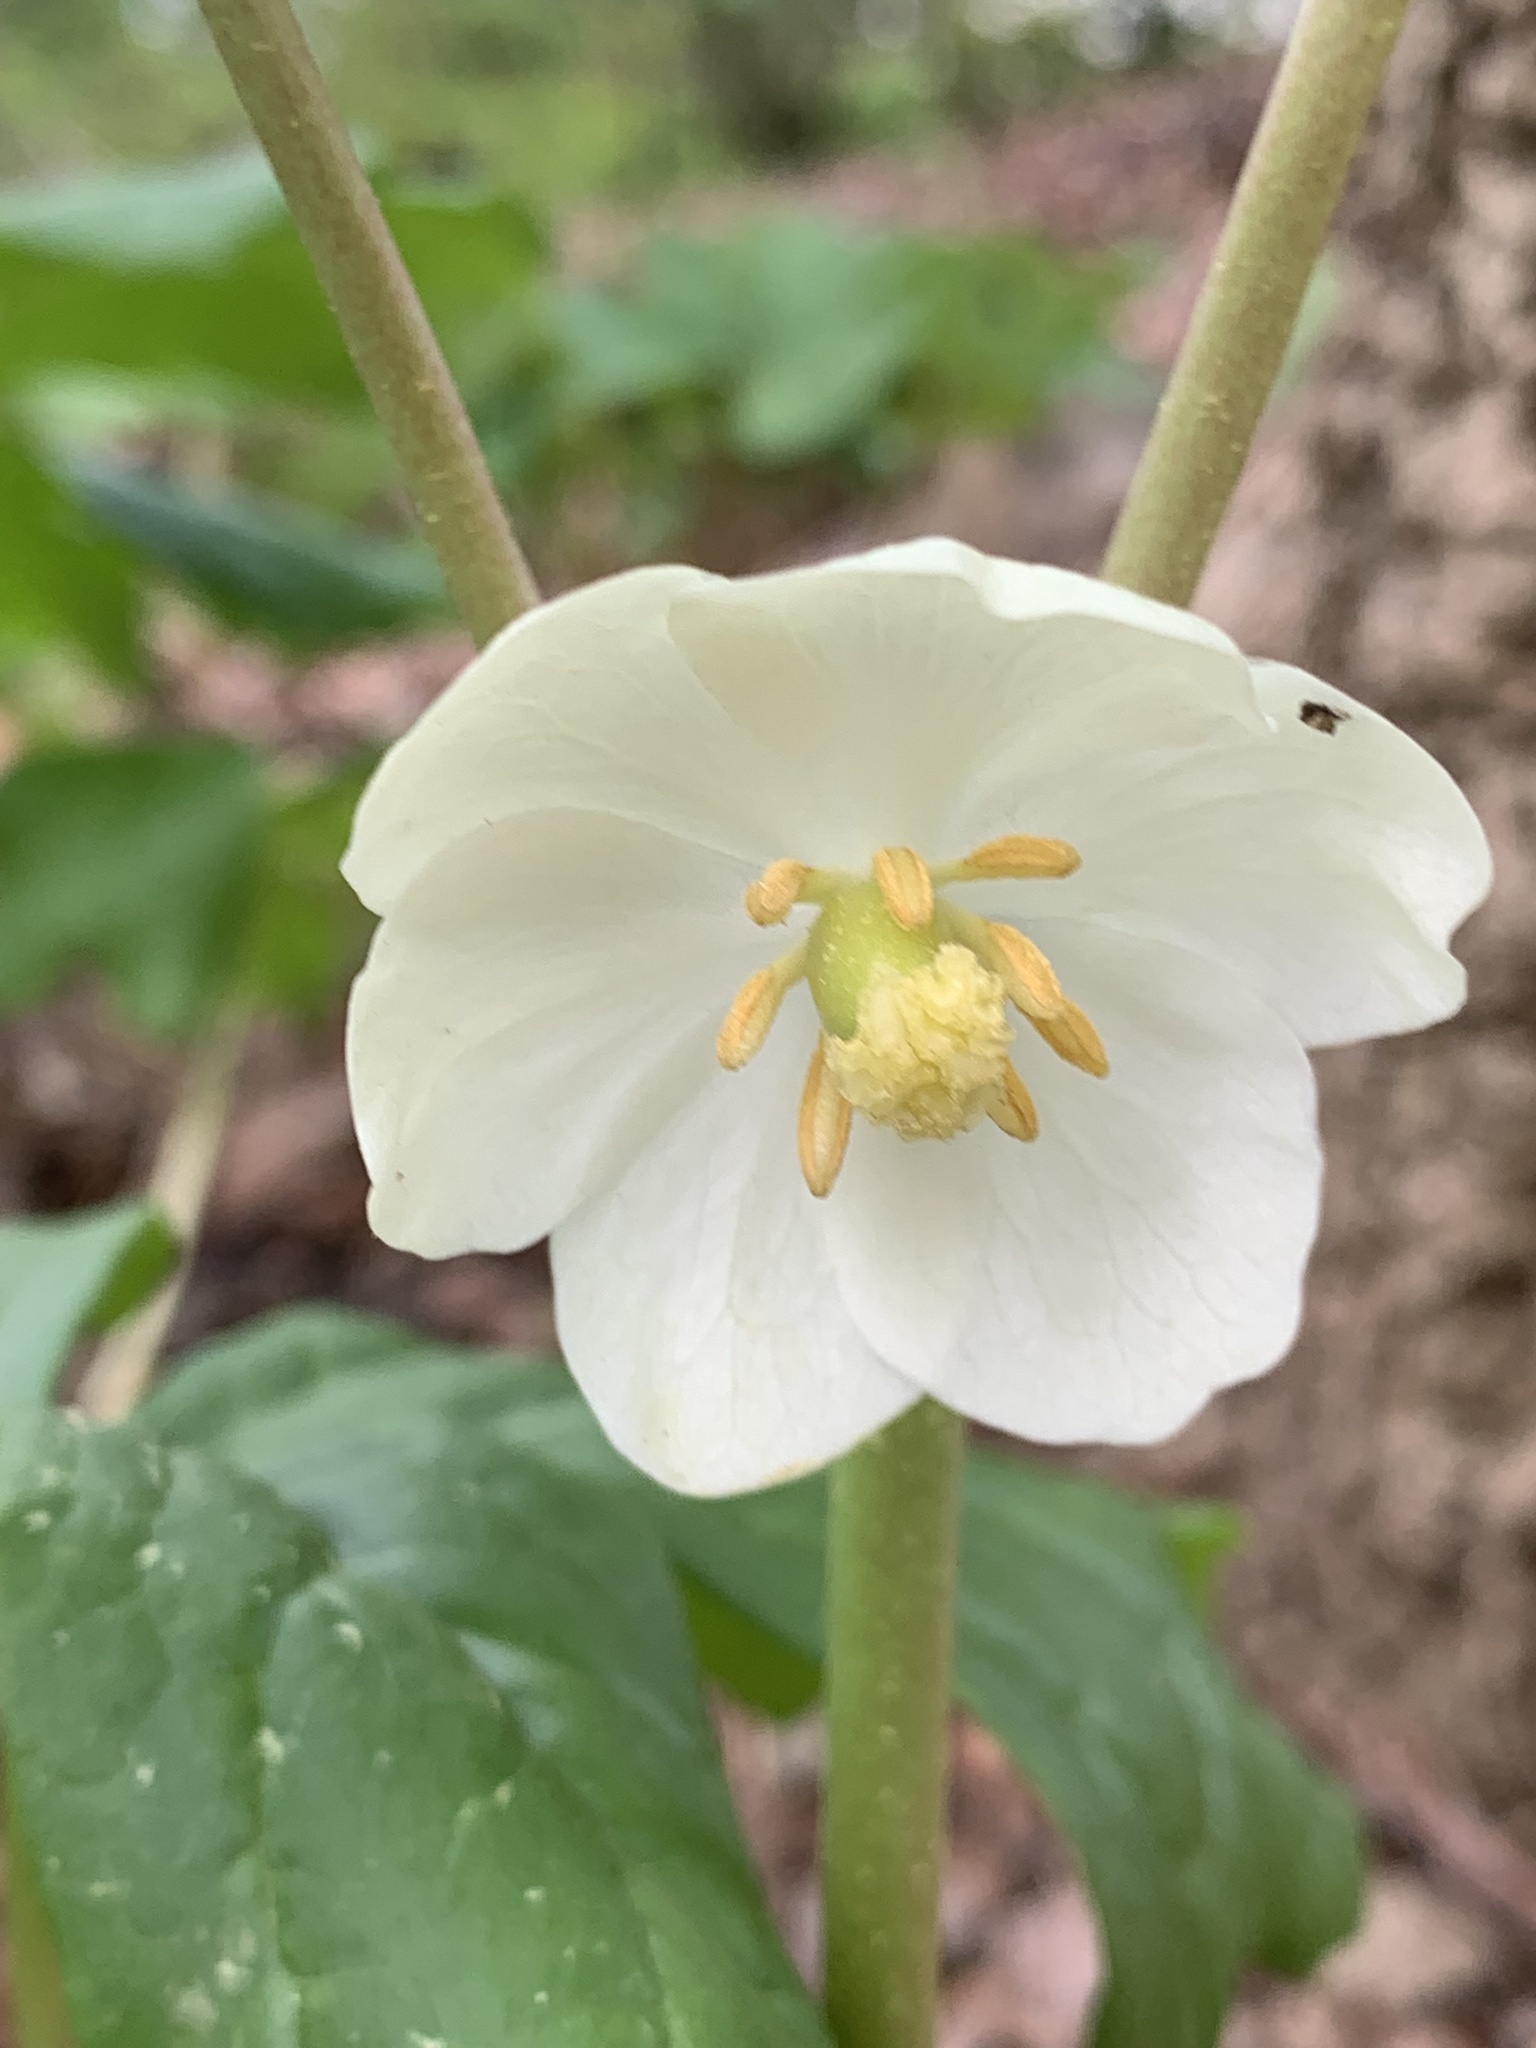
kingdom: Plantae
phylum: Tracheophyta
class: Magnoliopsida
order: Ranunculales
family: Berberidaceae
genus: Podophyllum
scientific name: Podophyllum peltatum
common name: Wild mandrake
